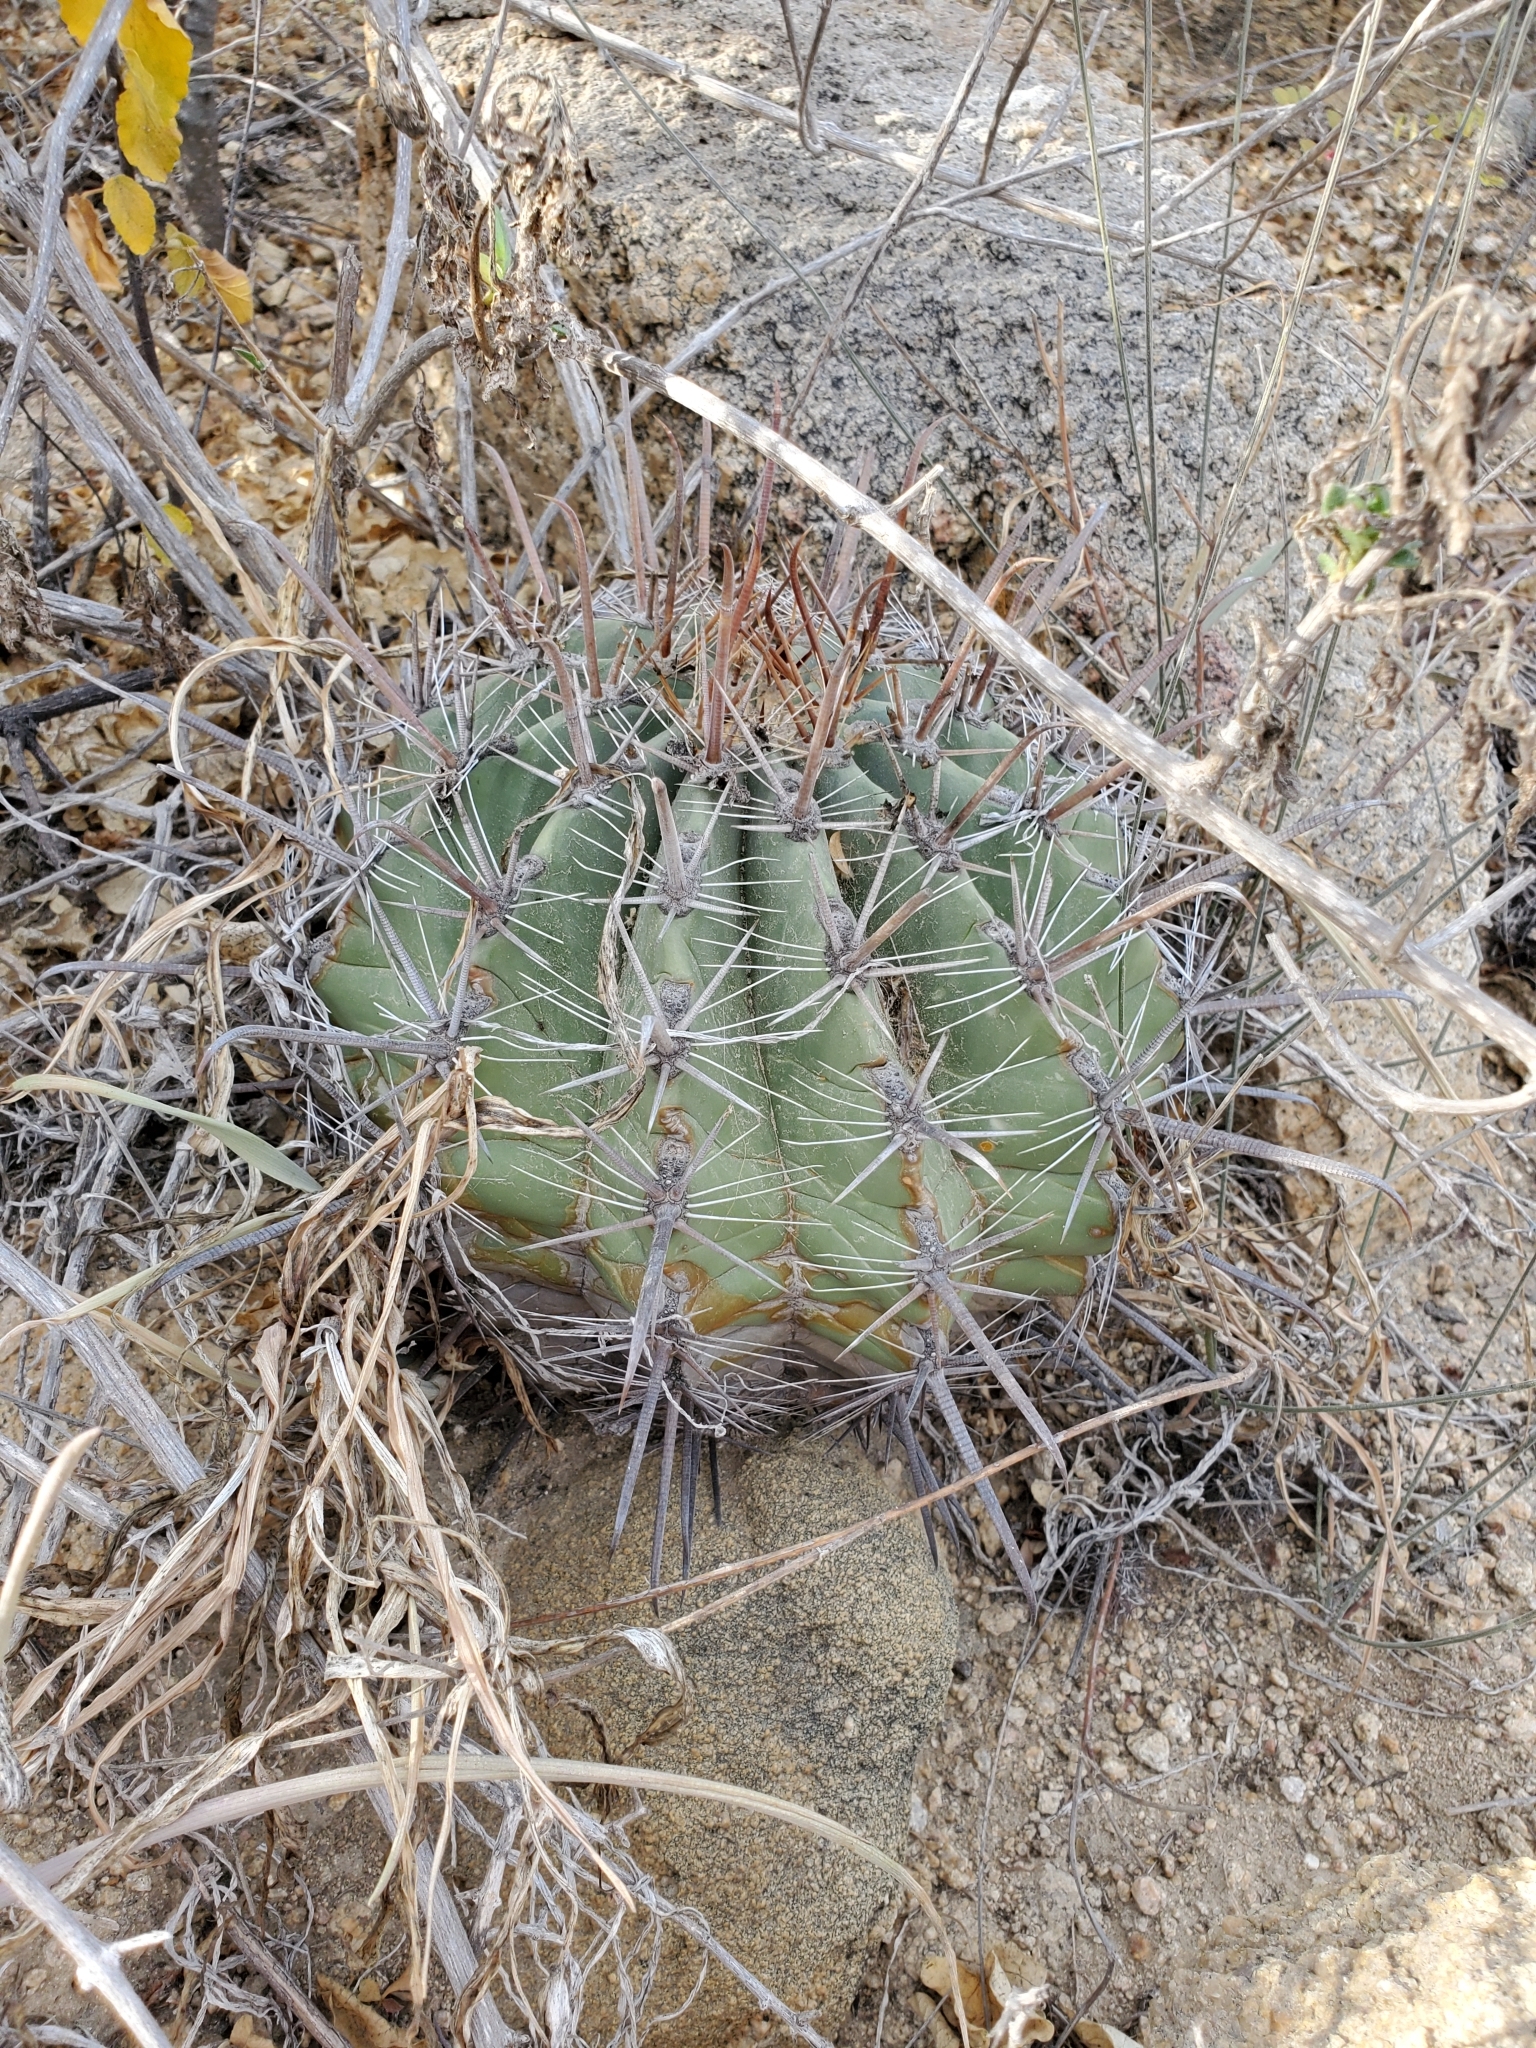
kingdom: Plantae
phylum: Tracheophyta
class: Magnoliopsida
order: Caryophyllales
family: Cactaceae
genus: Ferocactus
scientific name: Ferocactus townsendianus
